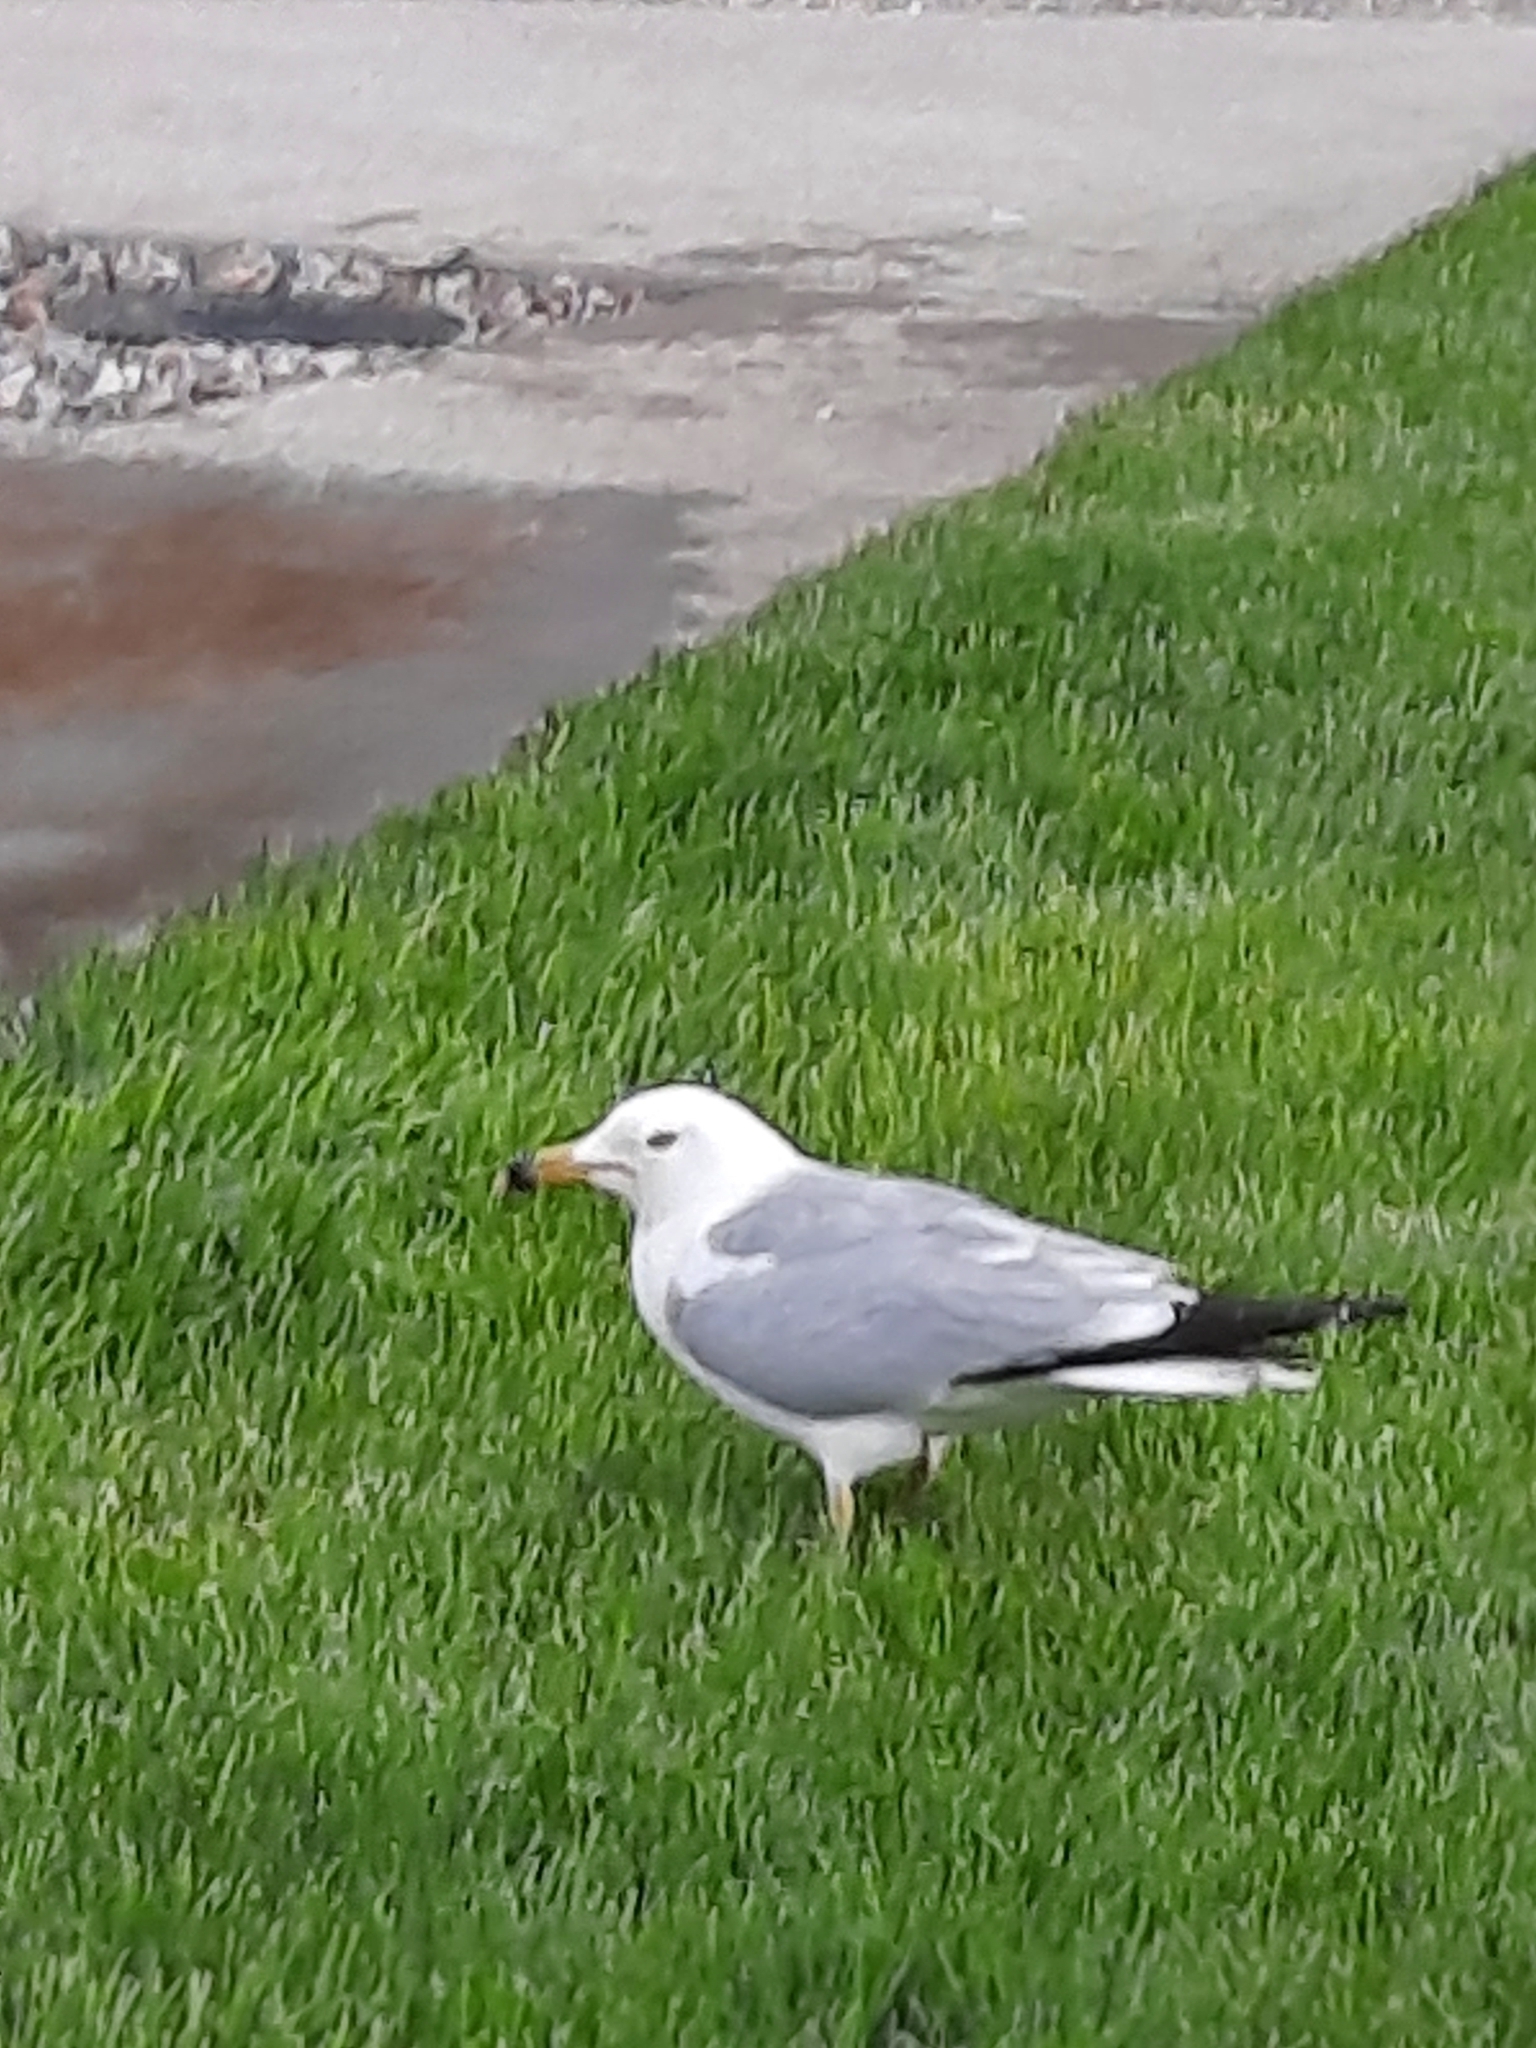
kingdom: Animalia
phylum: Chordata
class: Aves
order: Charadriiformes
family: Laridae
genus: Larus
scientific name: Larus delawarensis
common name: Ring-billed gull
